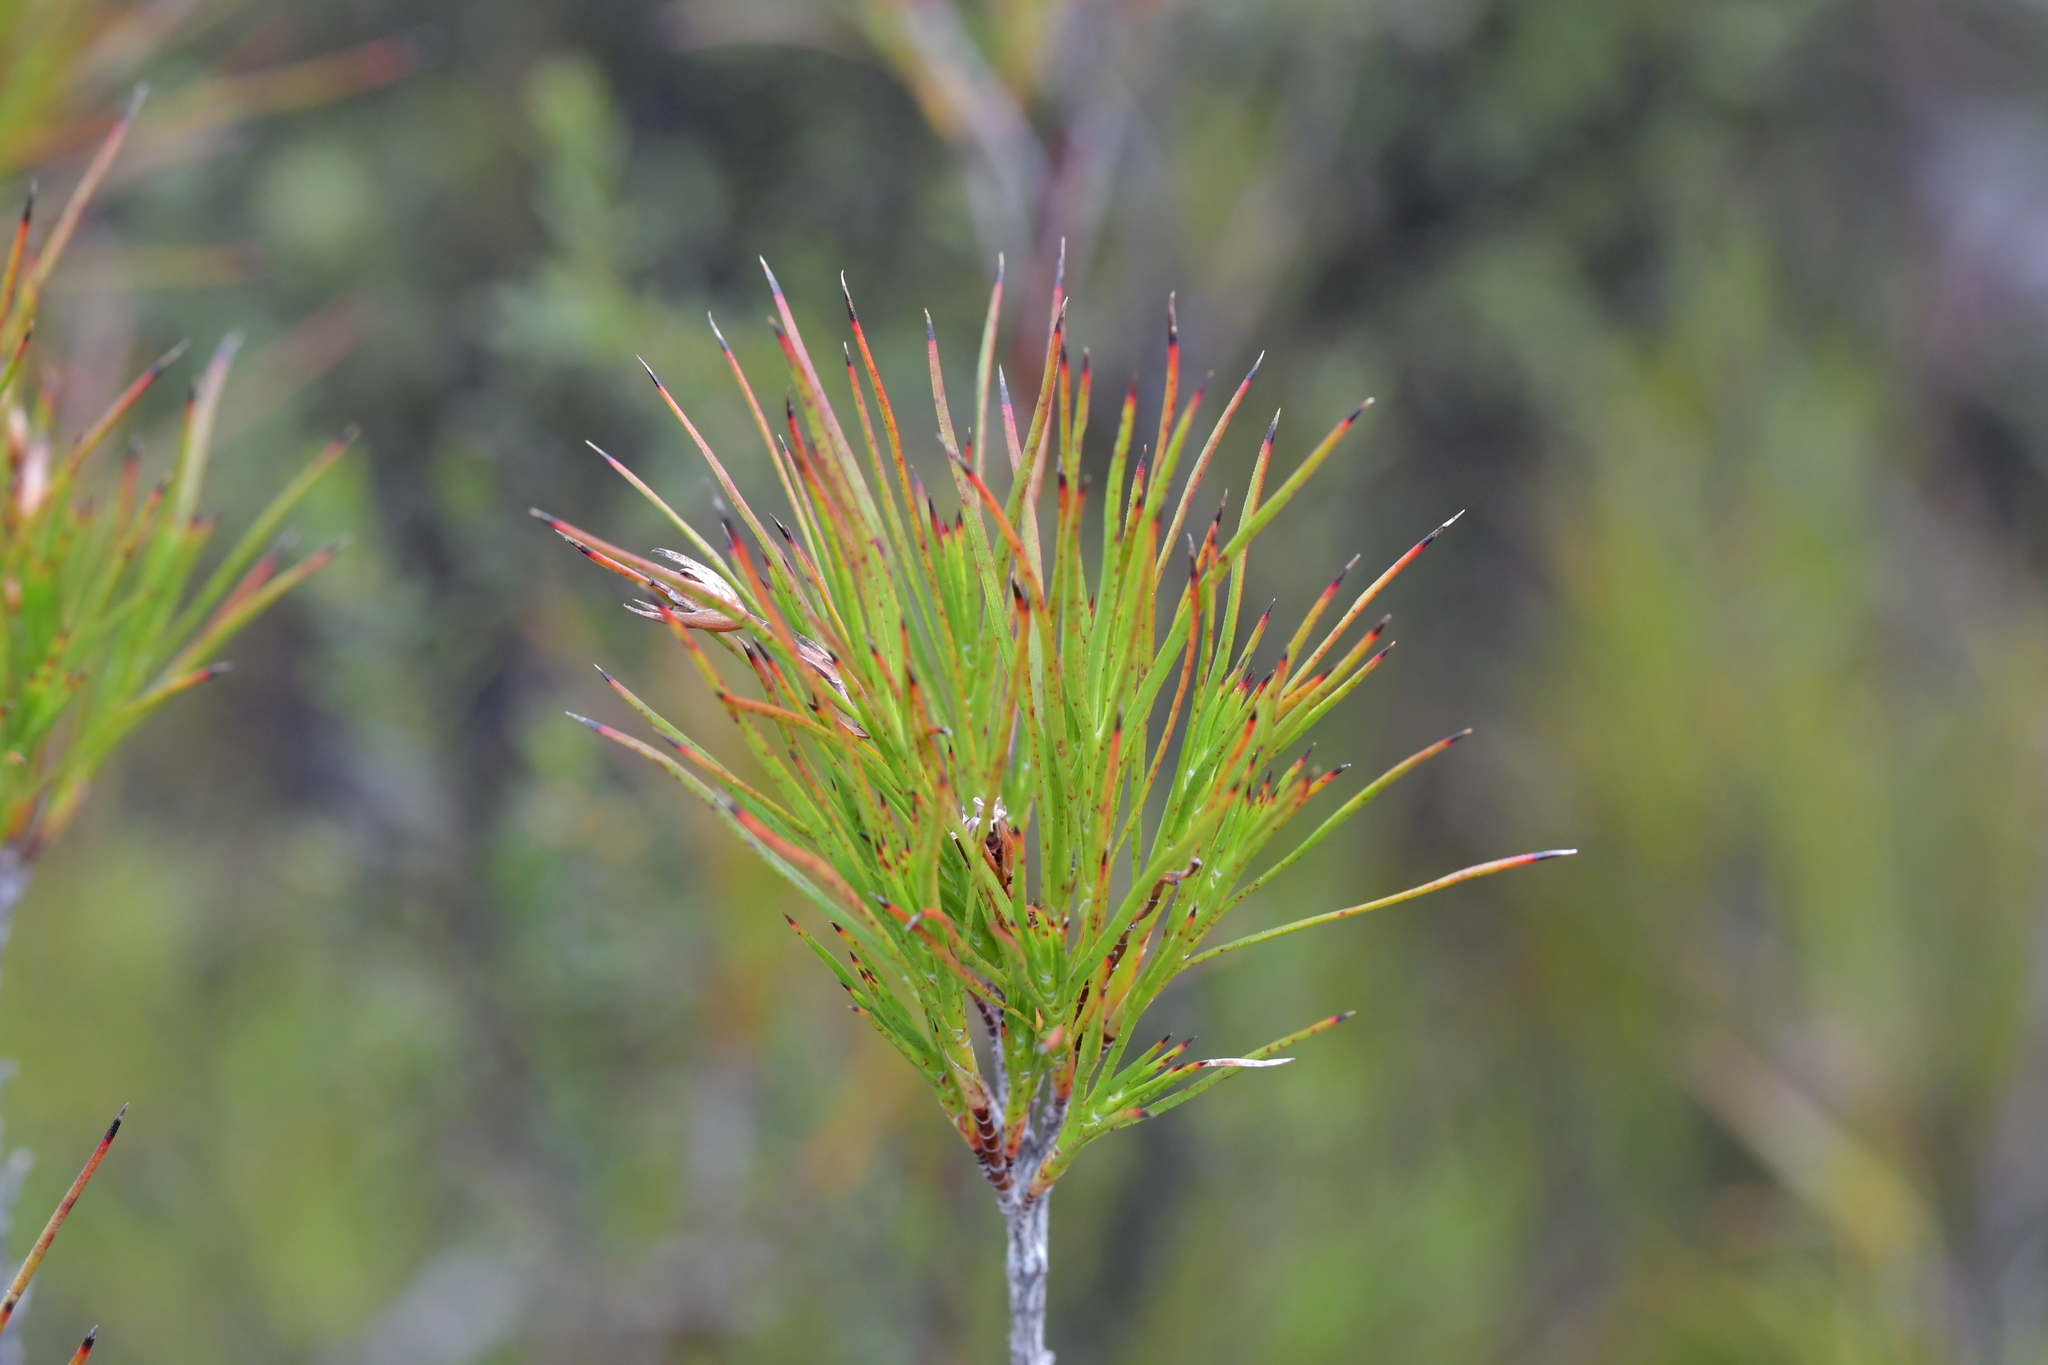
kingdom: Plantae
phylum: Tracheophyta
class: Magnoliopsida
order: Ericales
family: Ericaceae
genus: Dracophyllum
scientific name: Dracophyllum lessonianum
